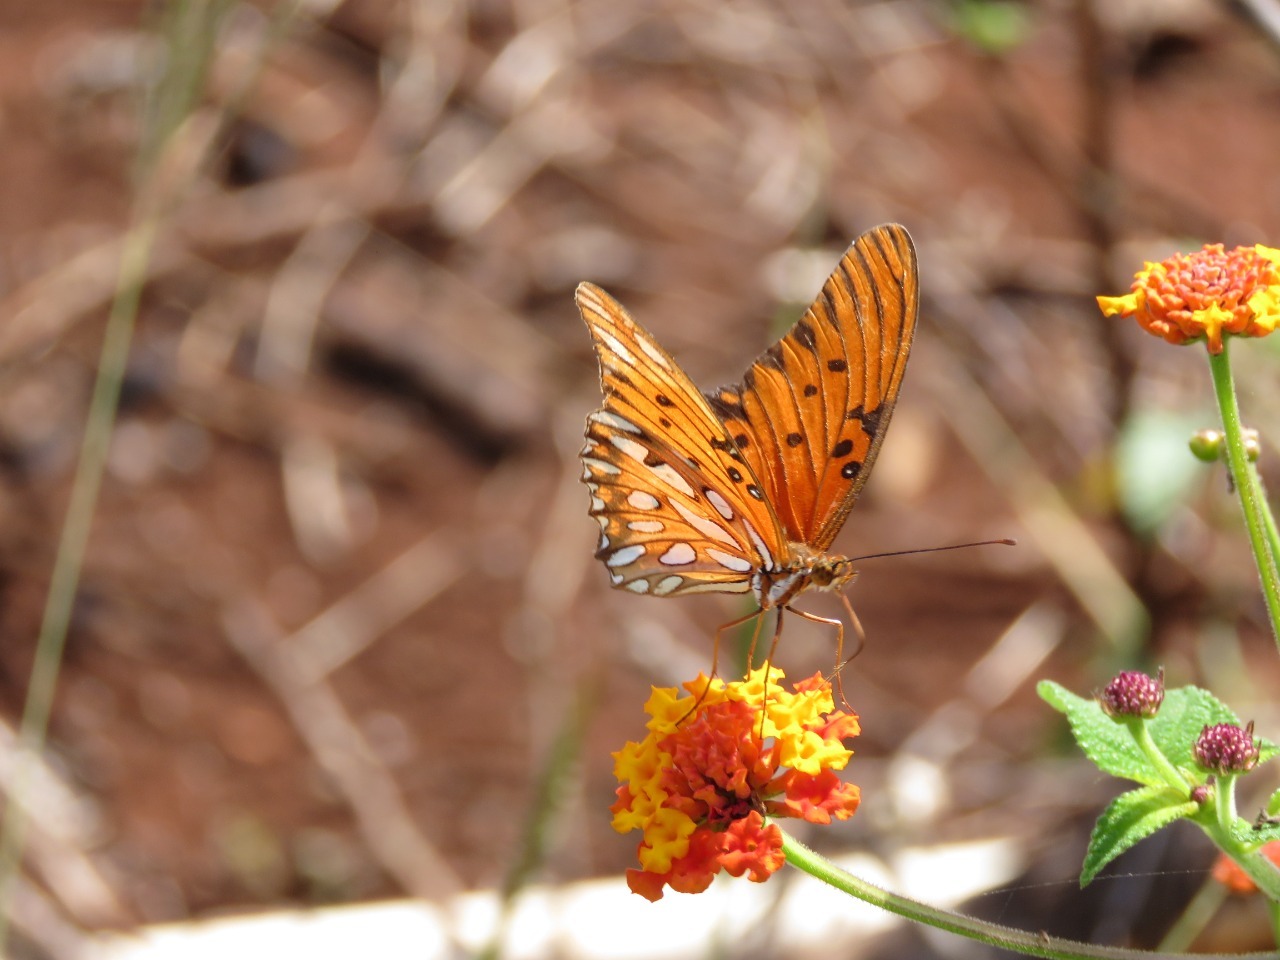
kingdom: Animalia
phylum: Arthropoda
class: Insecta
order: Lepidoptera
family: Nymphalidae
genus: Dione
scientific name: Dione vanillae
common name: Gulf fritillary
